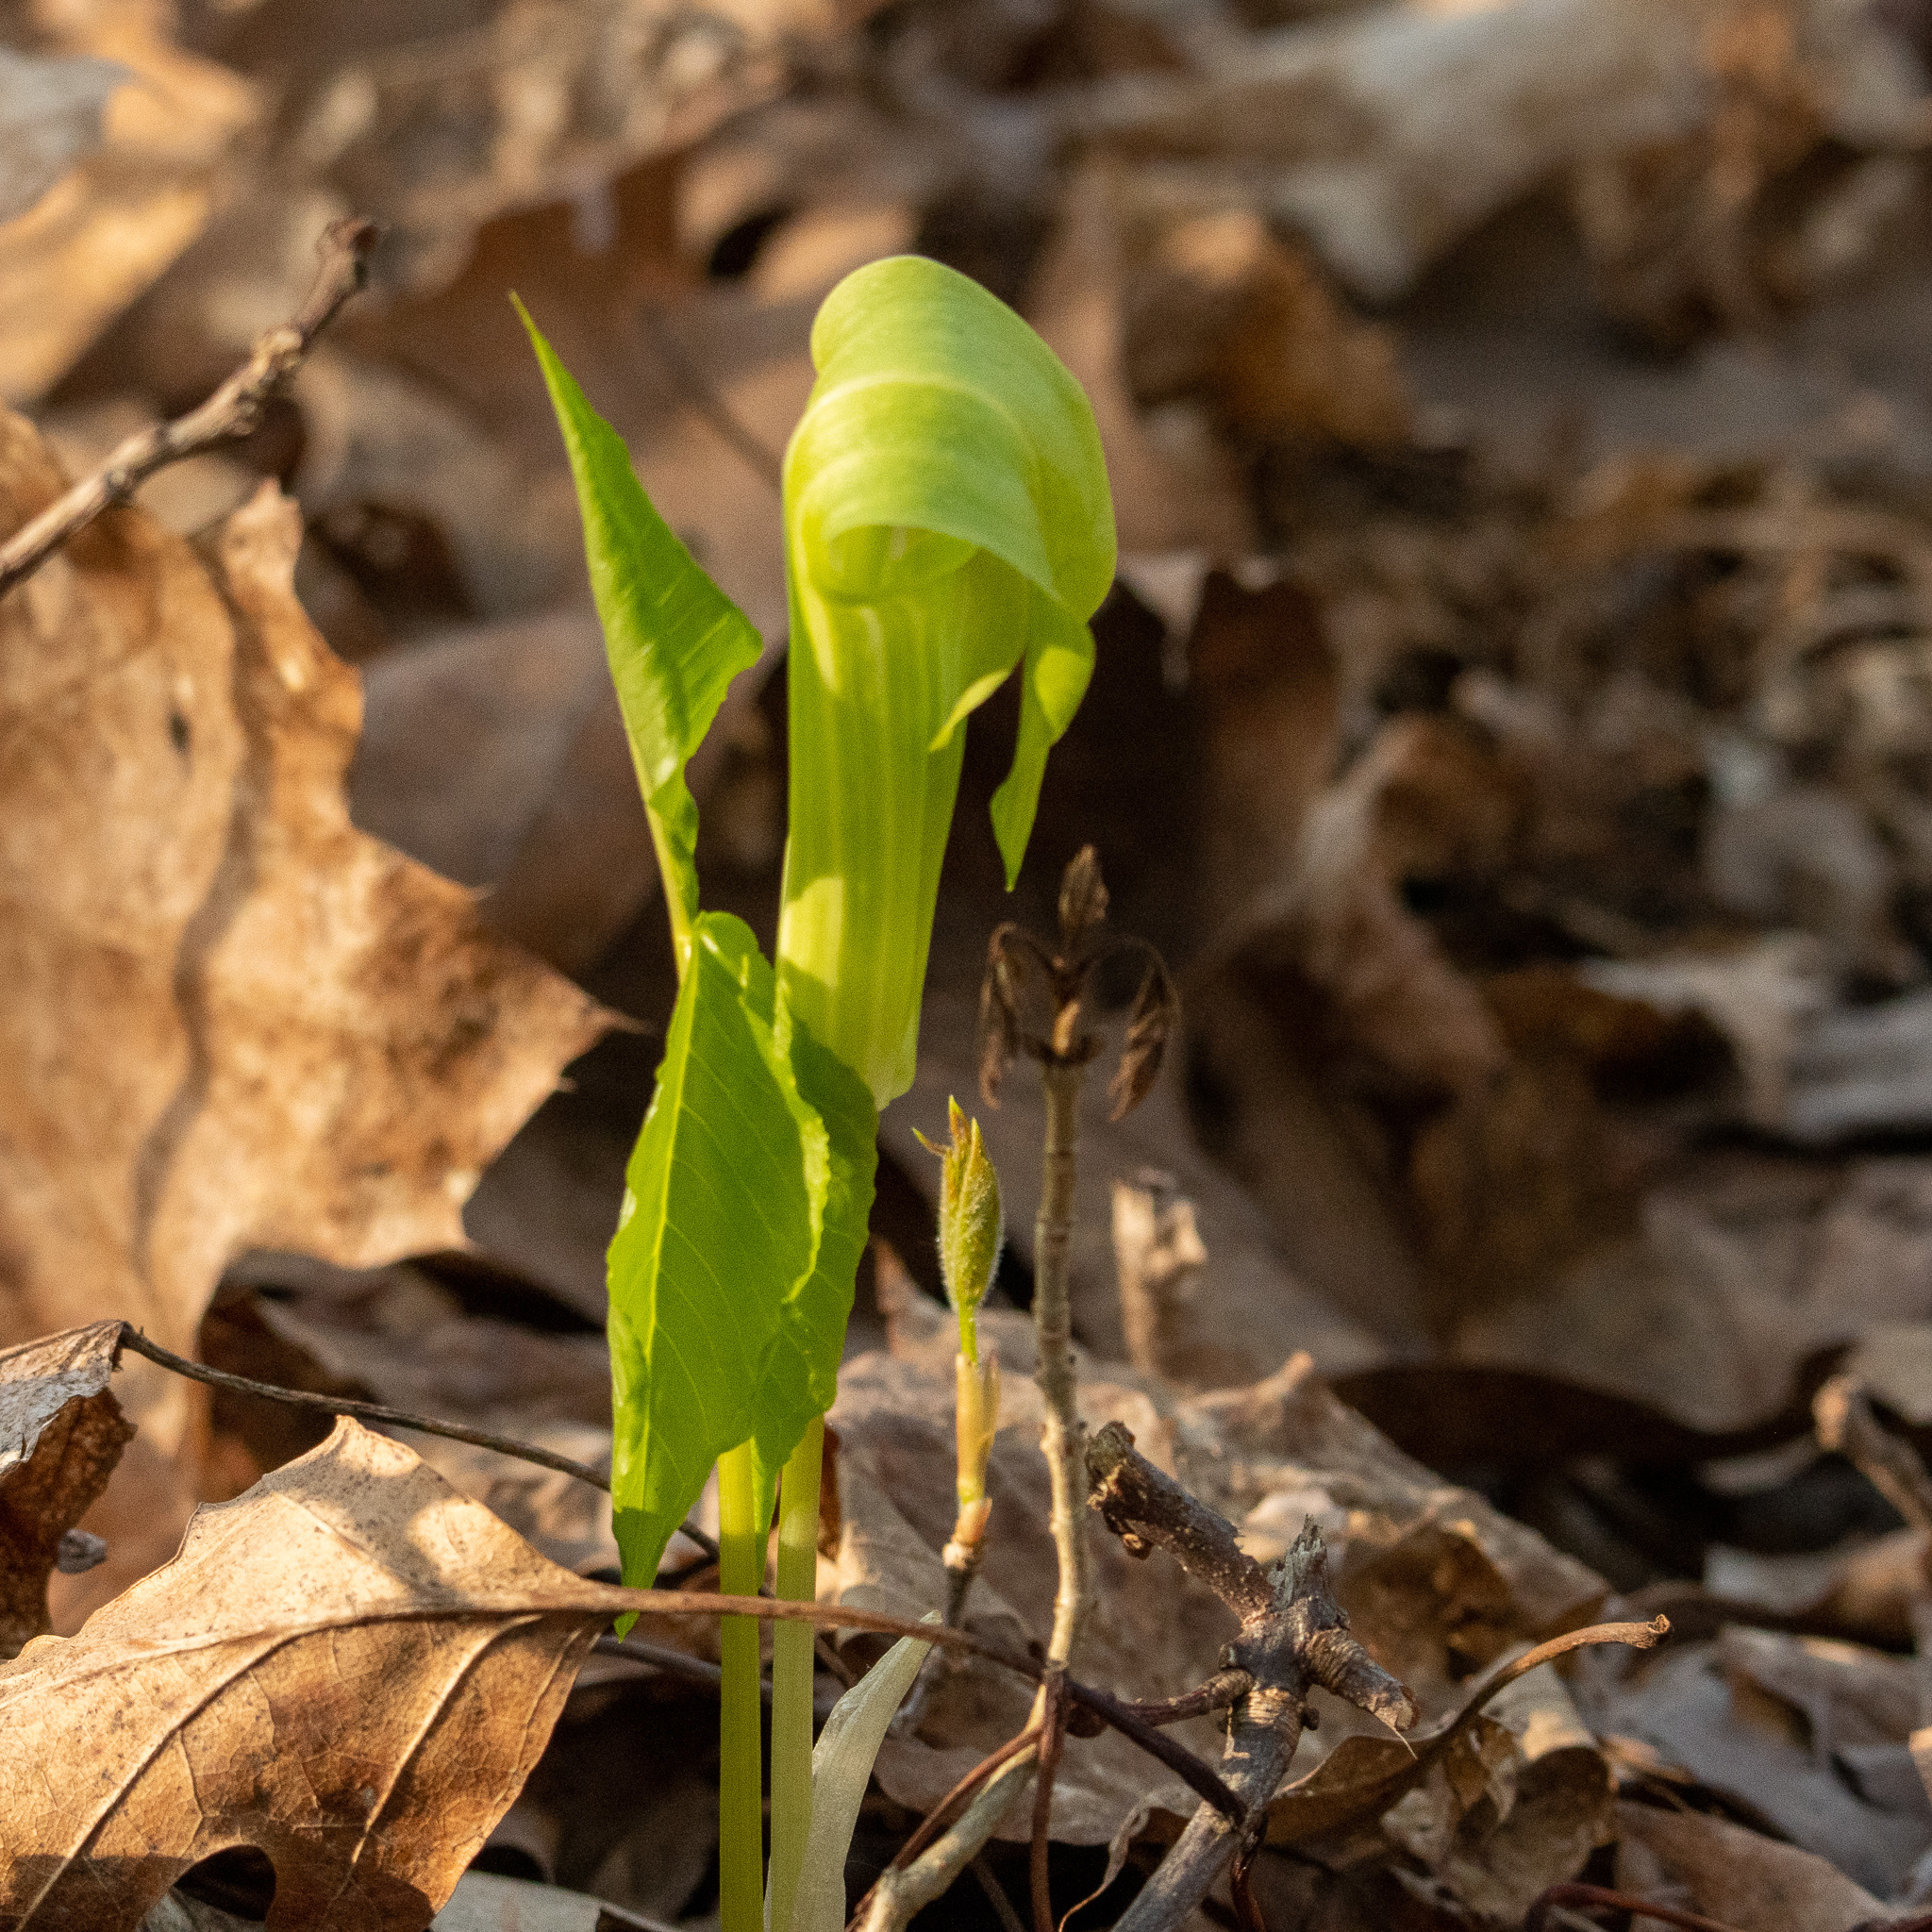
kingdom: Plantae
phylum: Tracheophyta
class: Liliopsida
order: Alismatales
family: Araceae
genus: Arisaema
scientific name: Arisaema triphyllum
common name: Jack-in-the-pulpit
